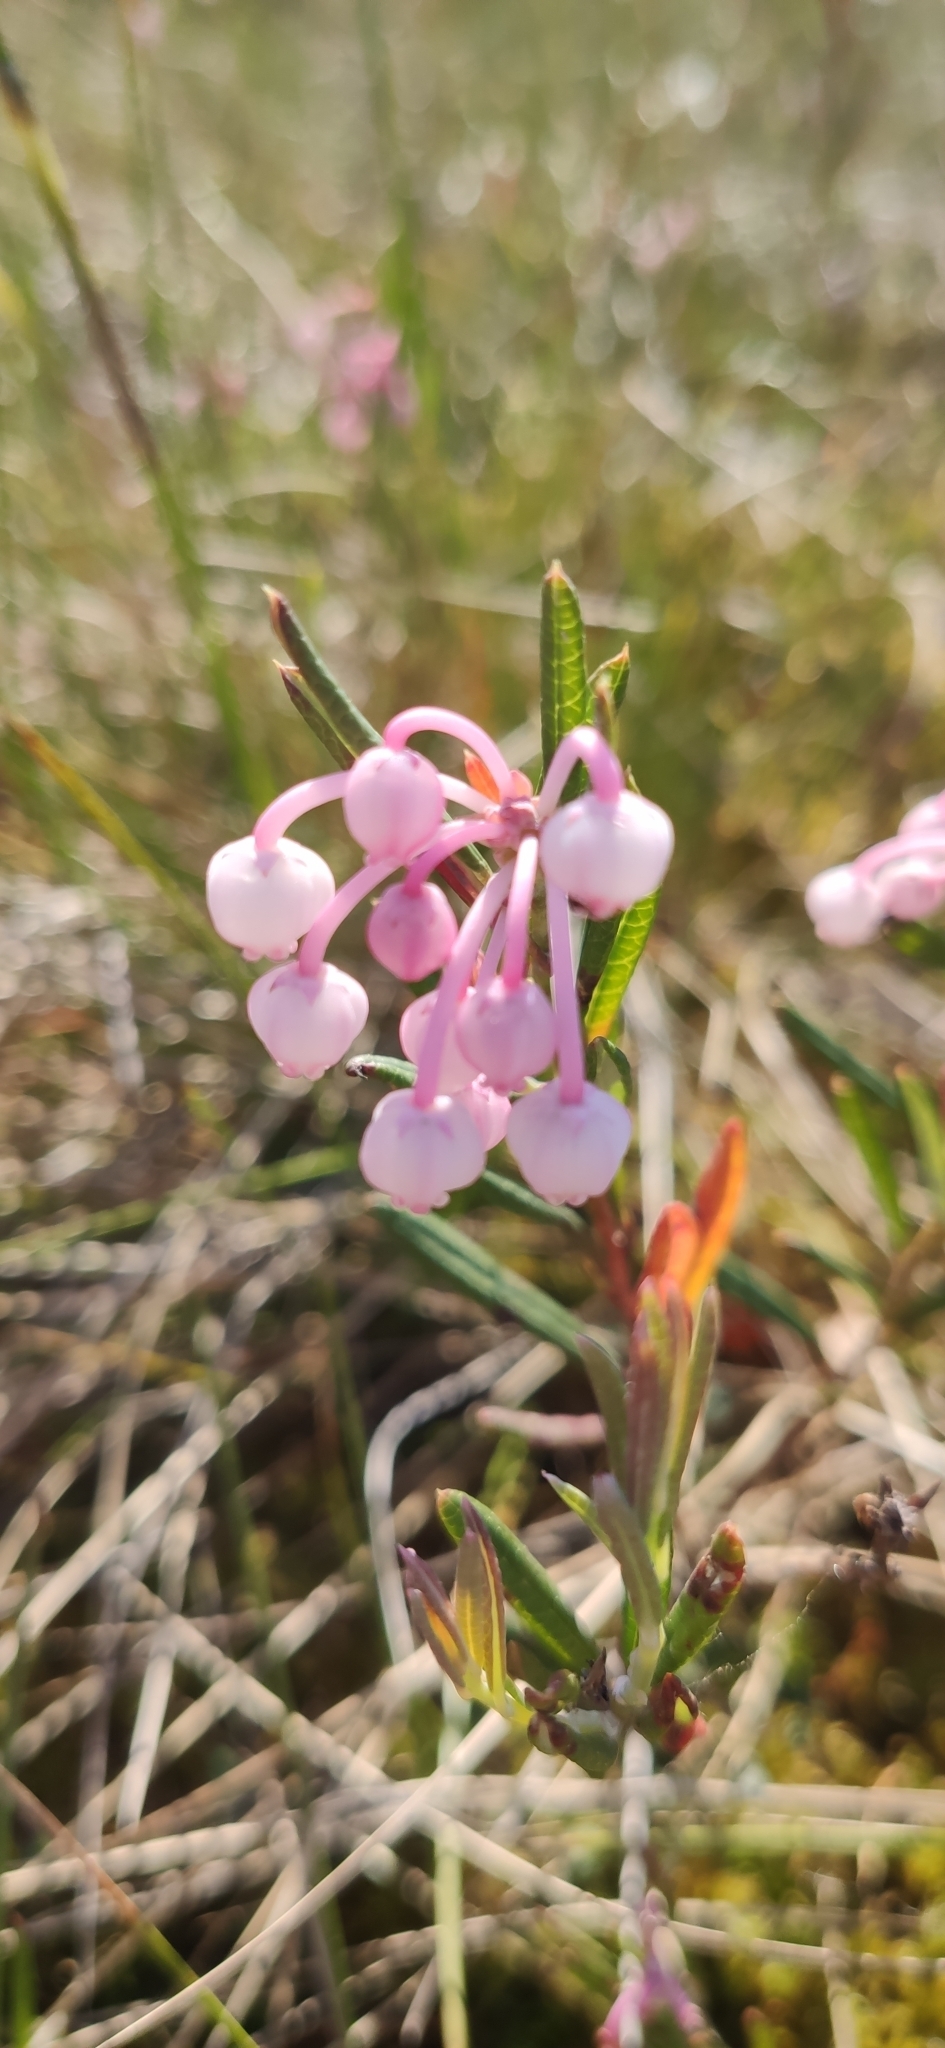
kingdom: Plantae
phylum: Tracheophyta
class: Magnoliopsida
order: Ericales
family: Ericaceae
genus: Andromeda
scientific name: Andromeda polifolia
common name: Bog-rosemary
